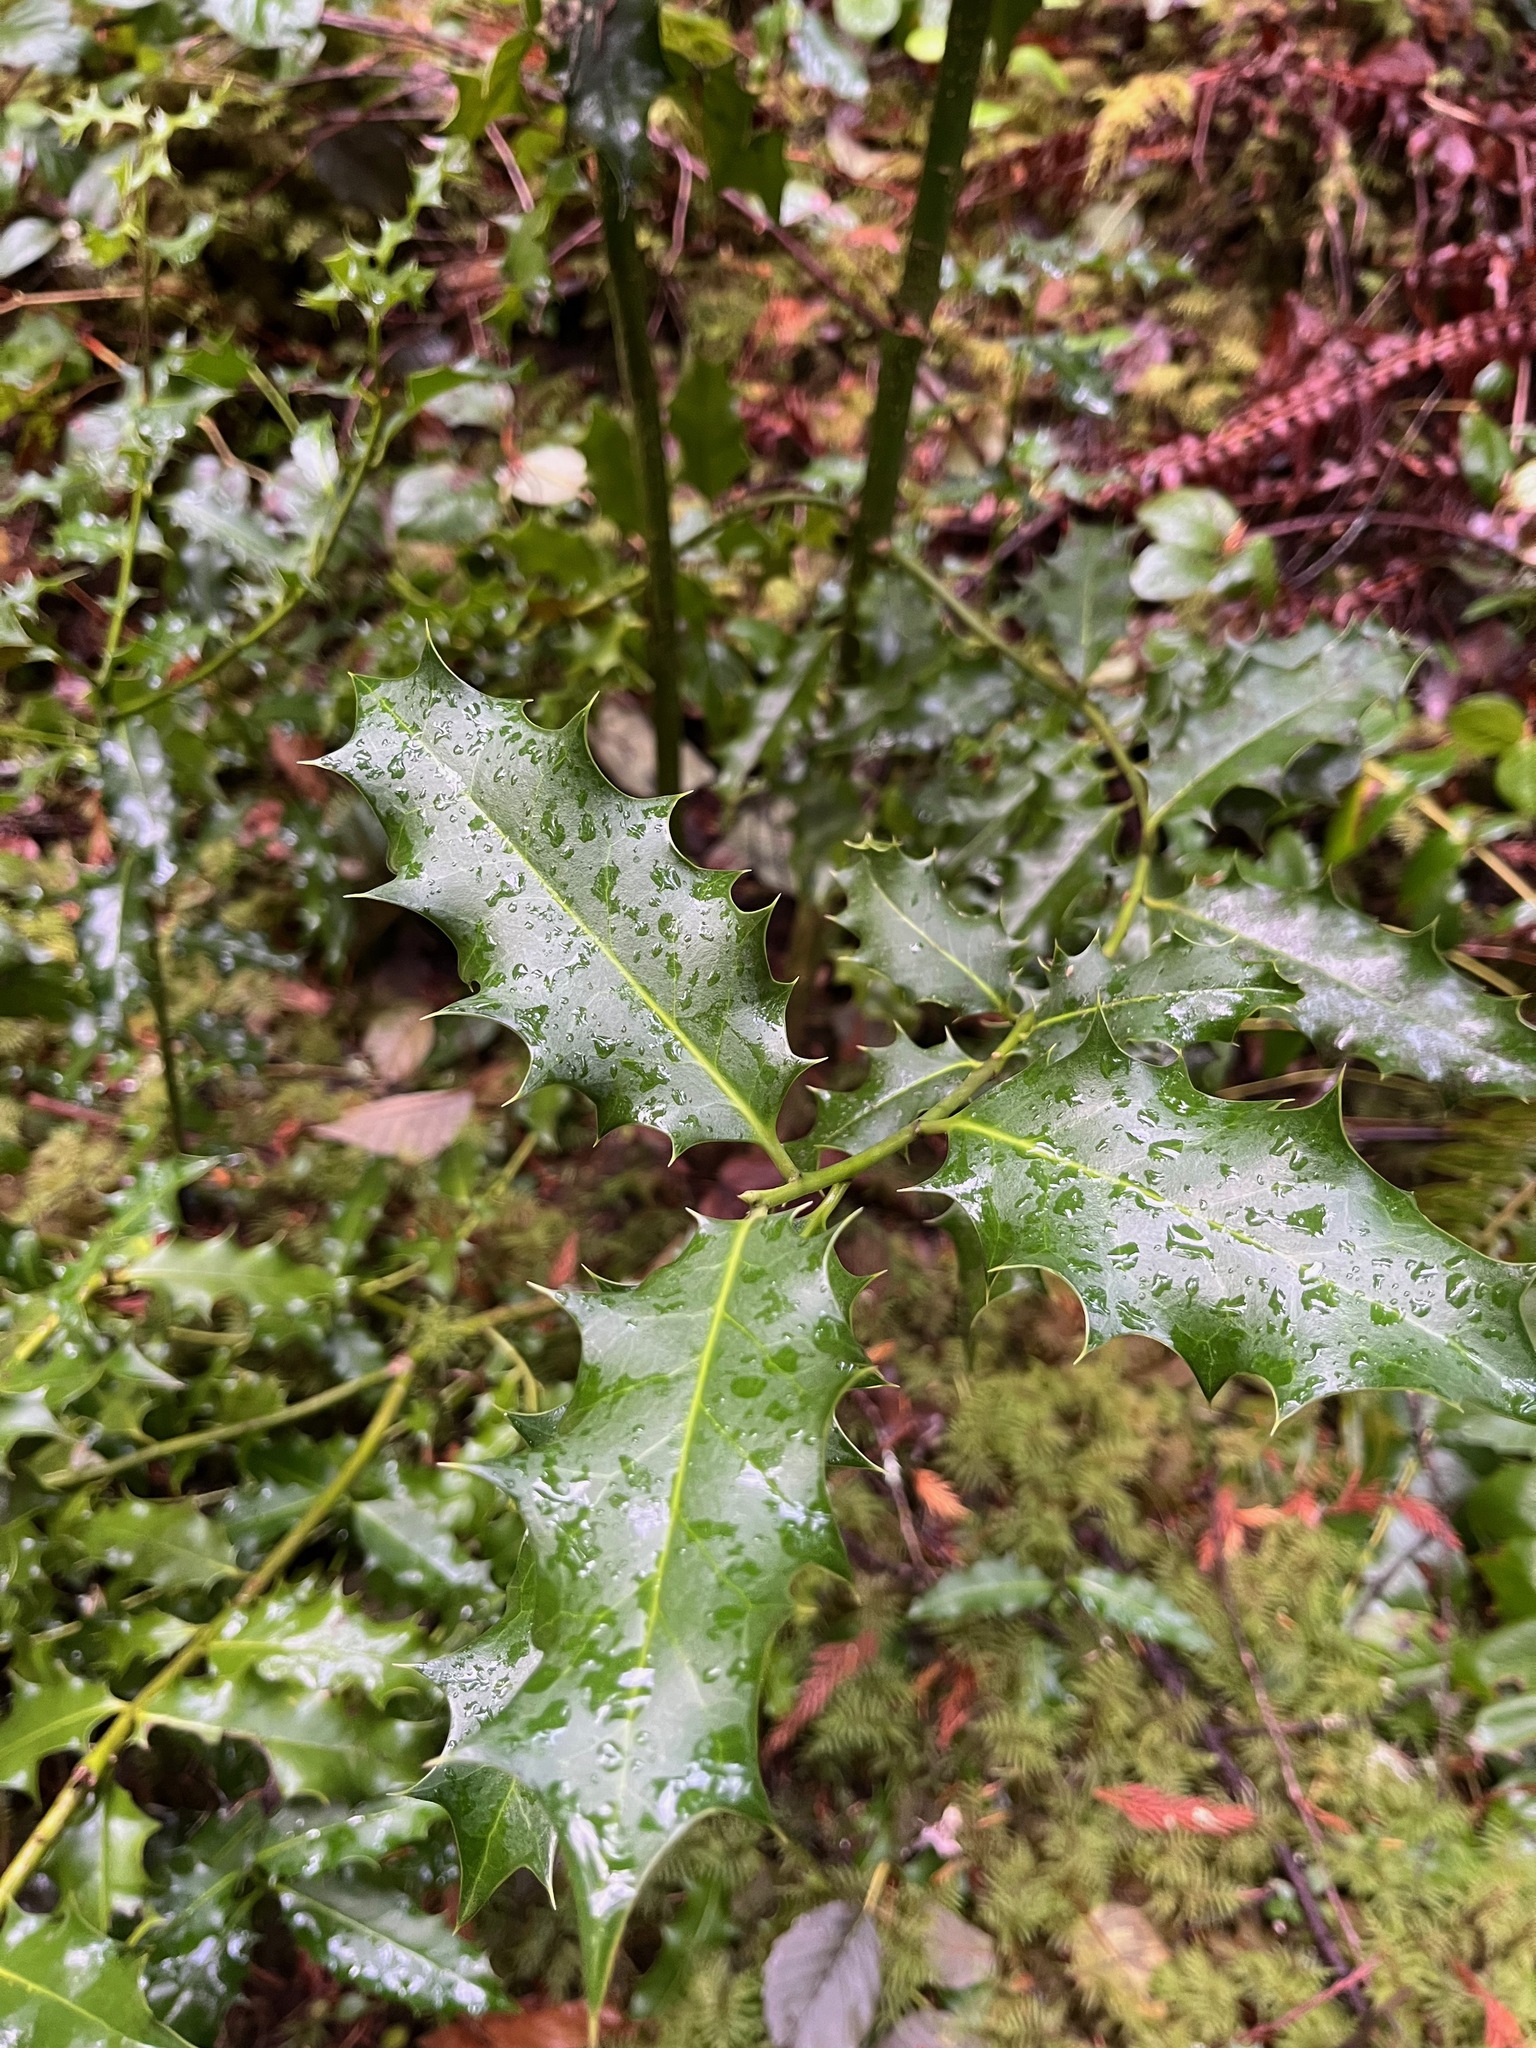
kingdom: Plantae
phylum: Tracheophyta
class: Magnoliopsida
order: Aquifoliales
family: Aquifoliaceae
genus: Ilex
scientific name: Ilex aquifolium
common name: English holly
